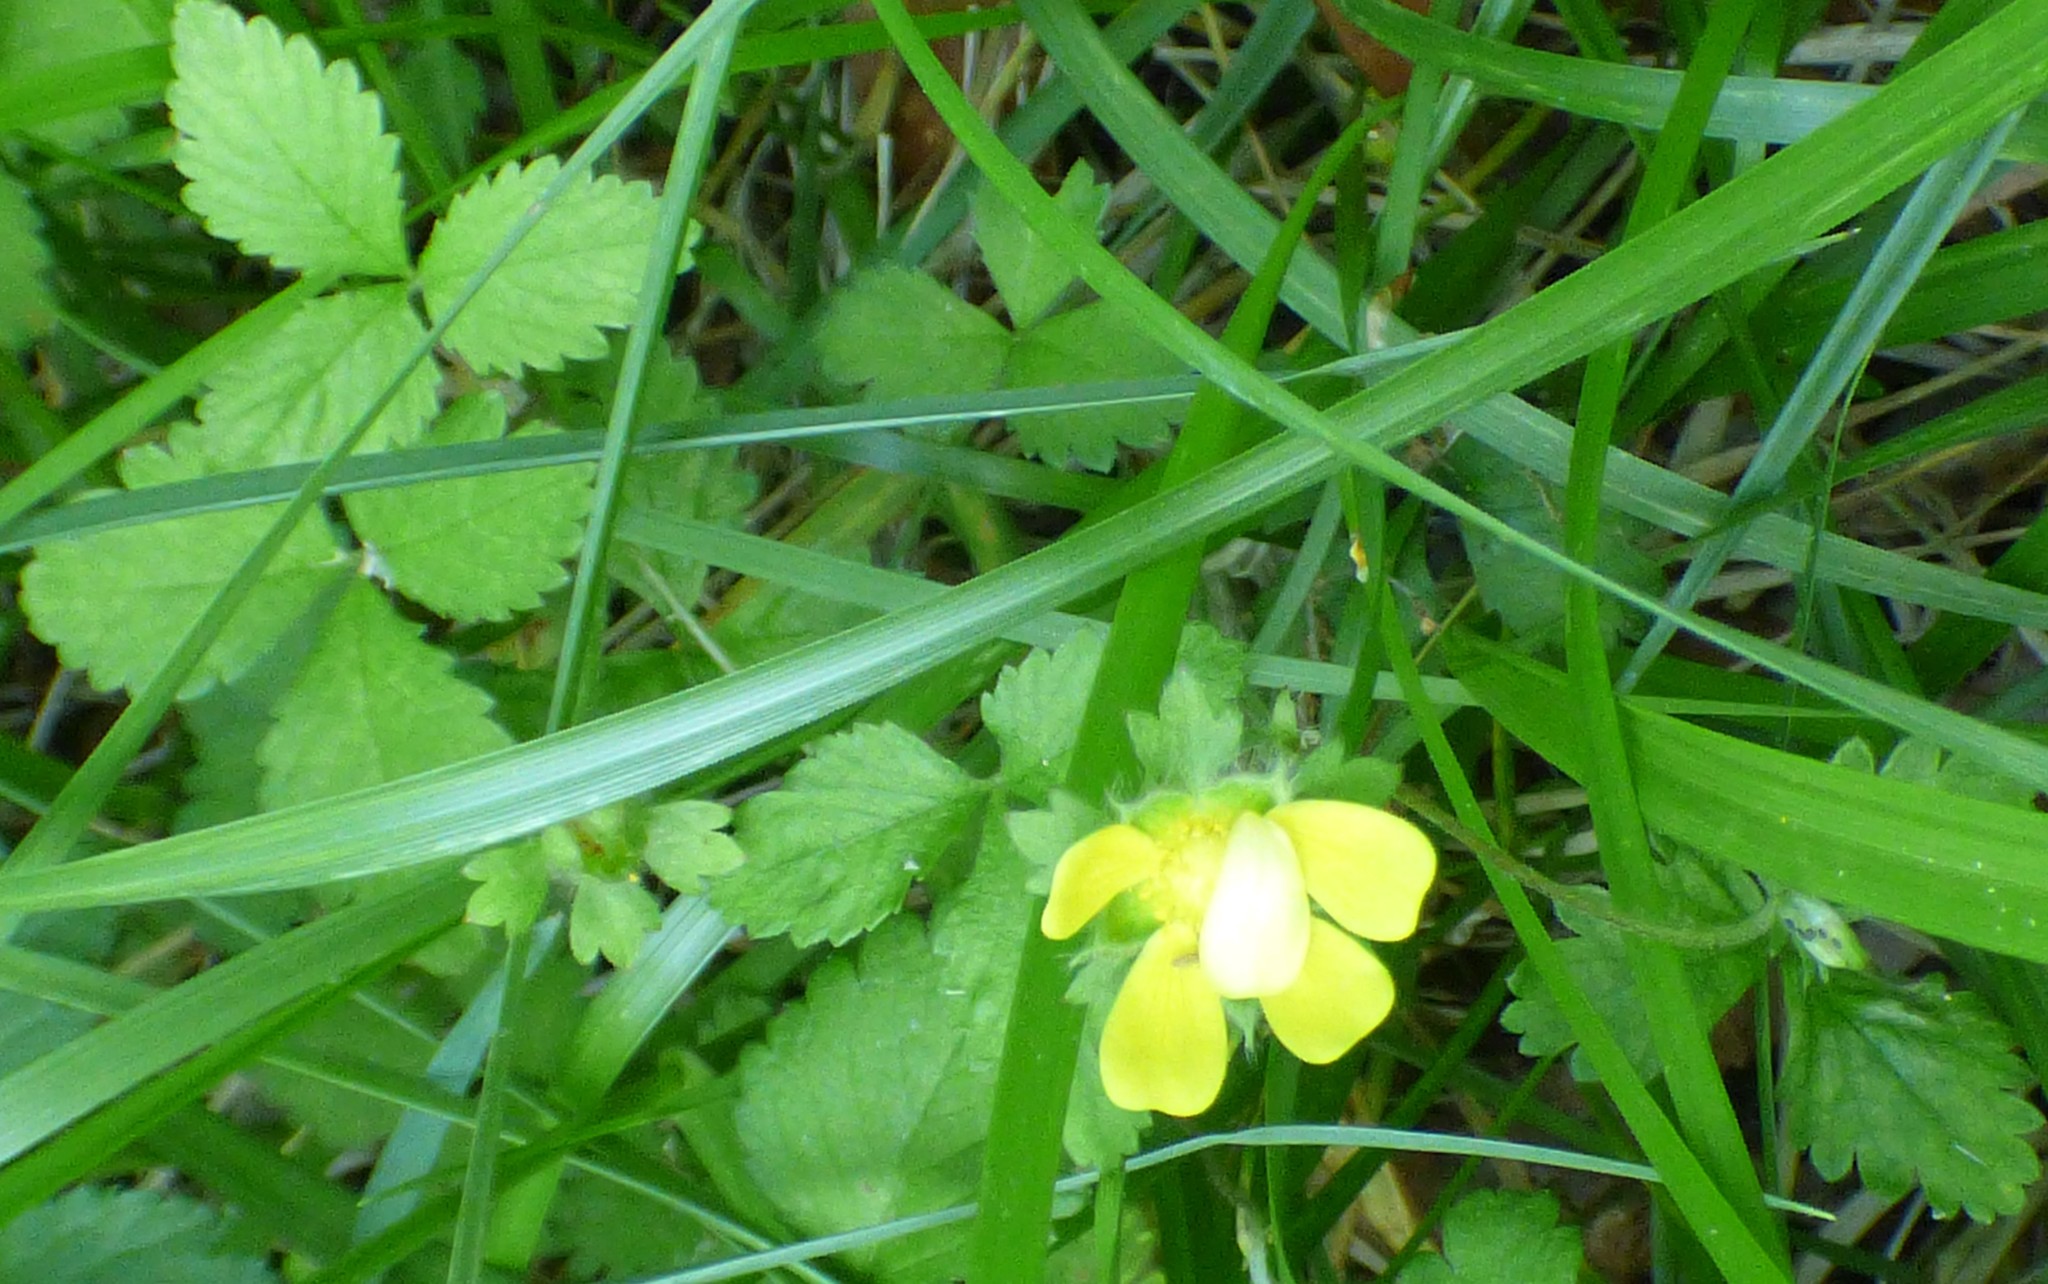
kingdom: Plantae
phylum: Tracheophyta
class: Magnoliopsida
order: Rosales
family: Rosaceae
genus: Potentilla
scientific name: Potentilla indica
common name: Yellow-flowered strawberry
